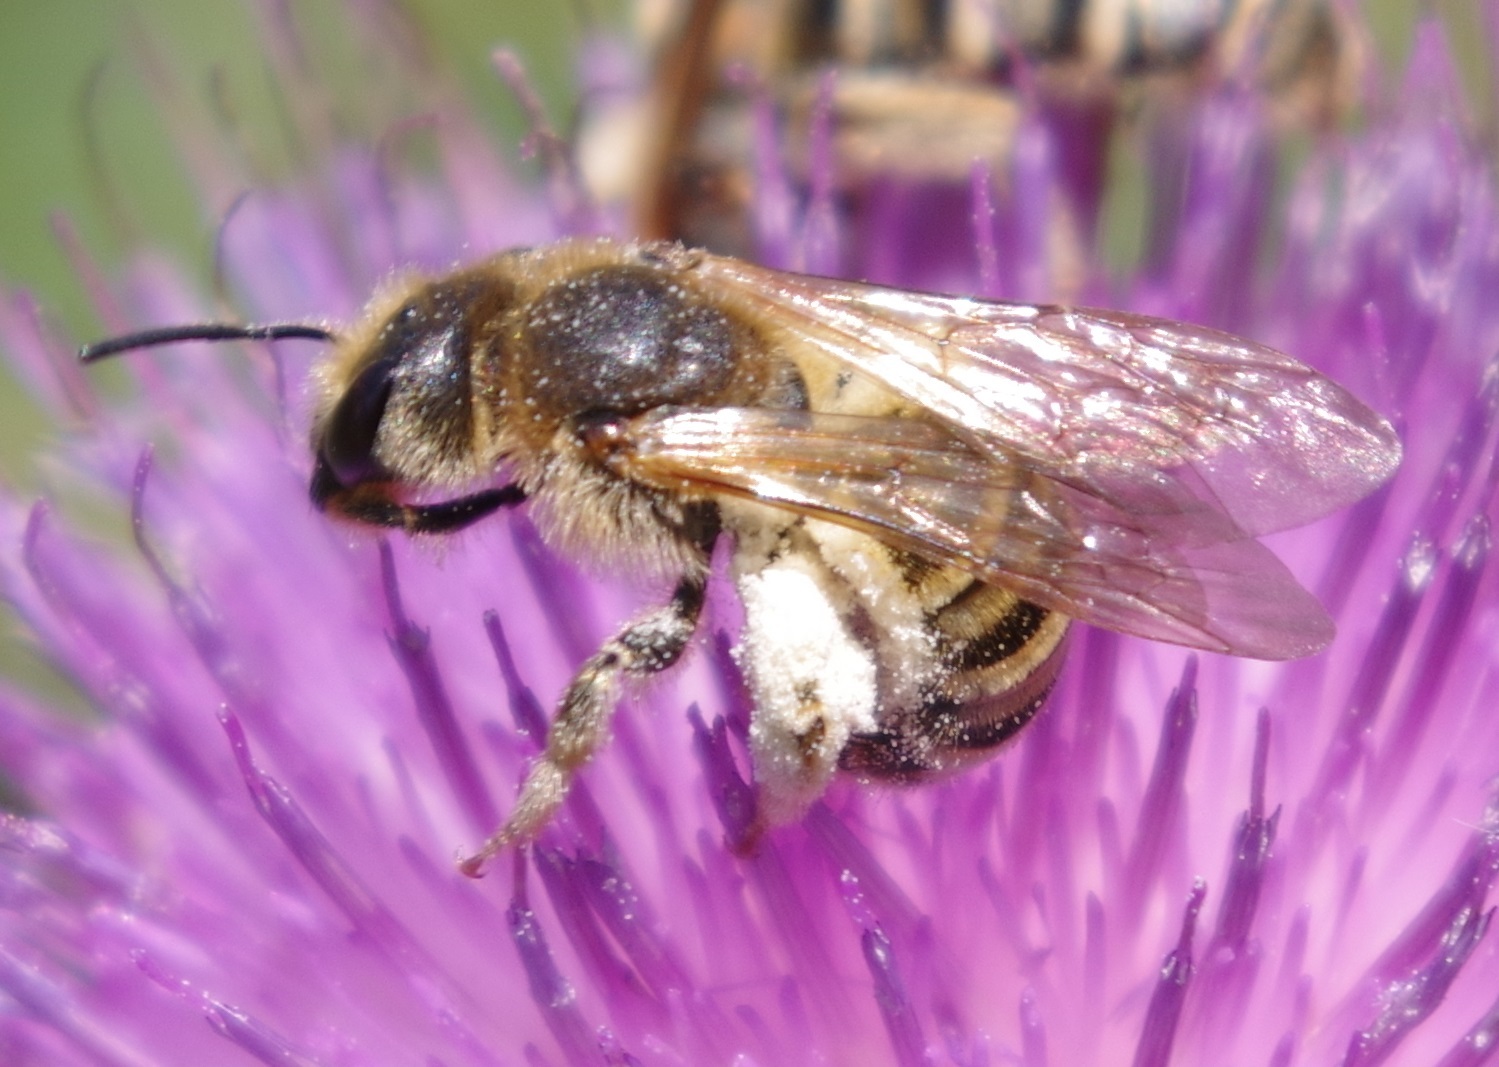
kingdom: Animalia
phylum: Arthropoda
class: Insecta
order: Hymenoptera
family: Halictidae
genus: Halictus
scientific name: Halictus scabiosae
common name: Great banded furrow bee
